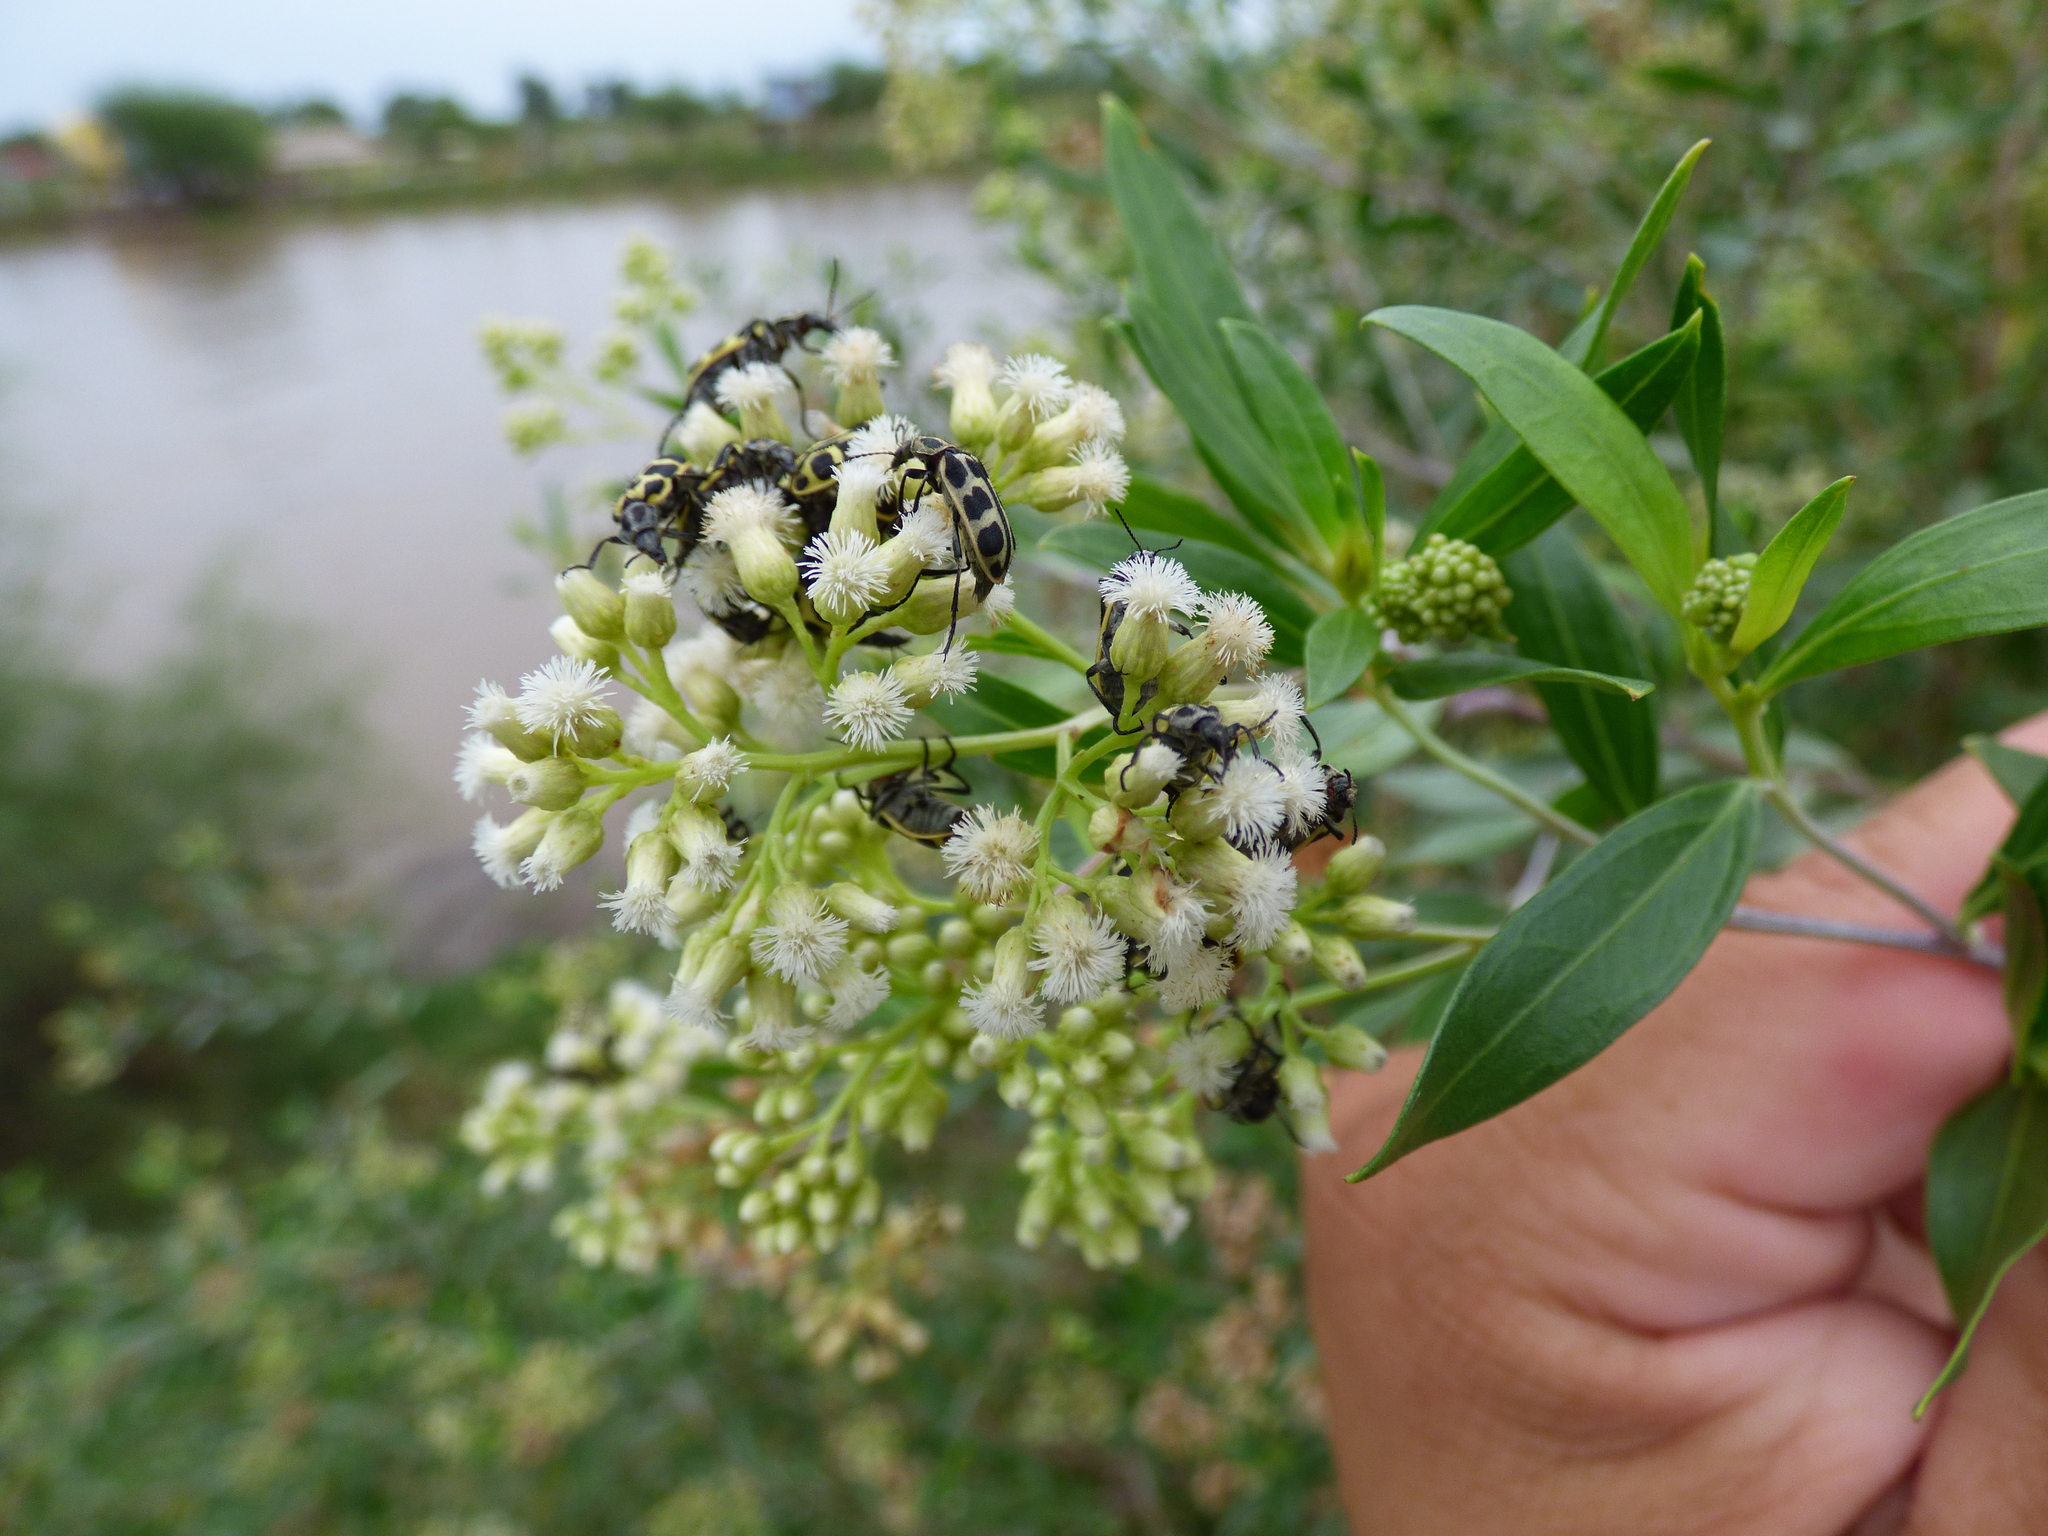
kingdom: Animalia
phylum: Arthropoda
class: Insecta
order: Coleoptera
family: Melyridae
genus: Astylus
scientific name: Astylus atromaculatus
